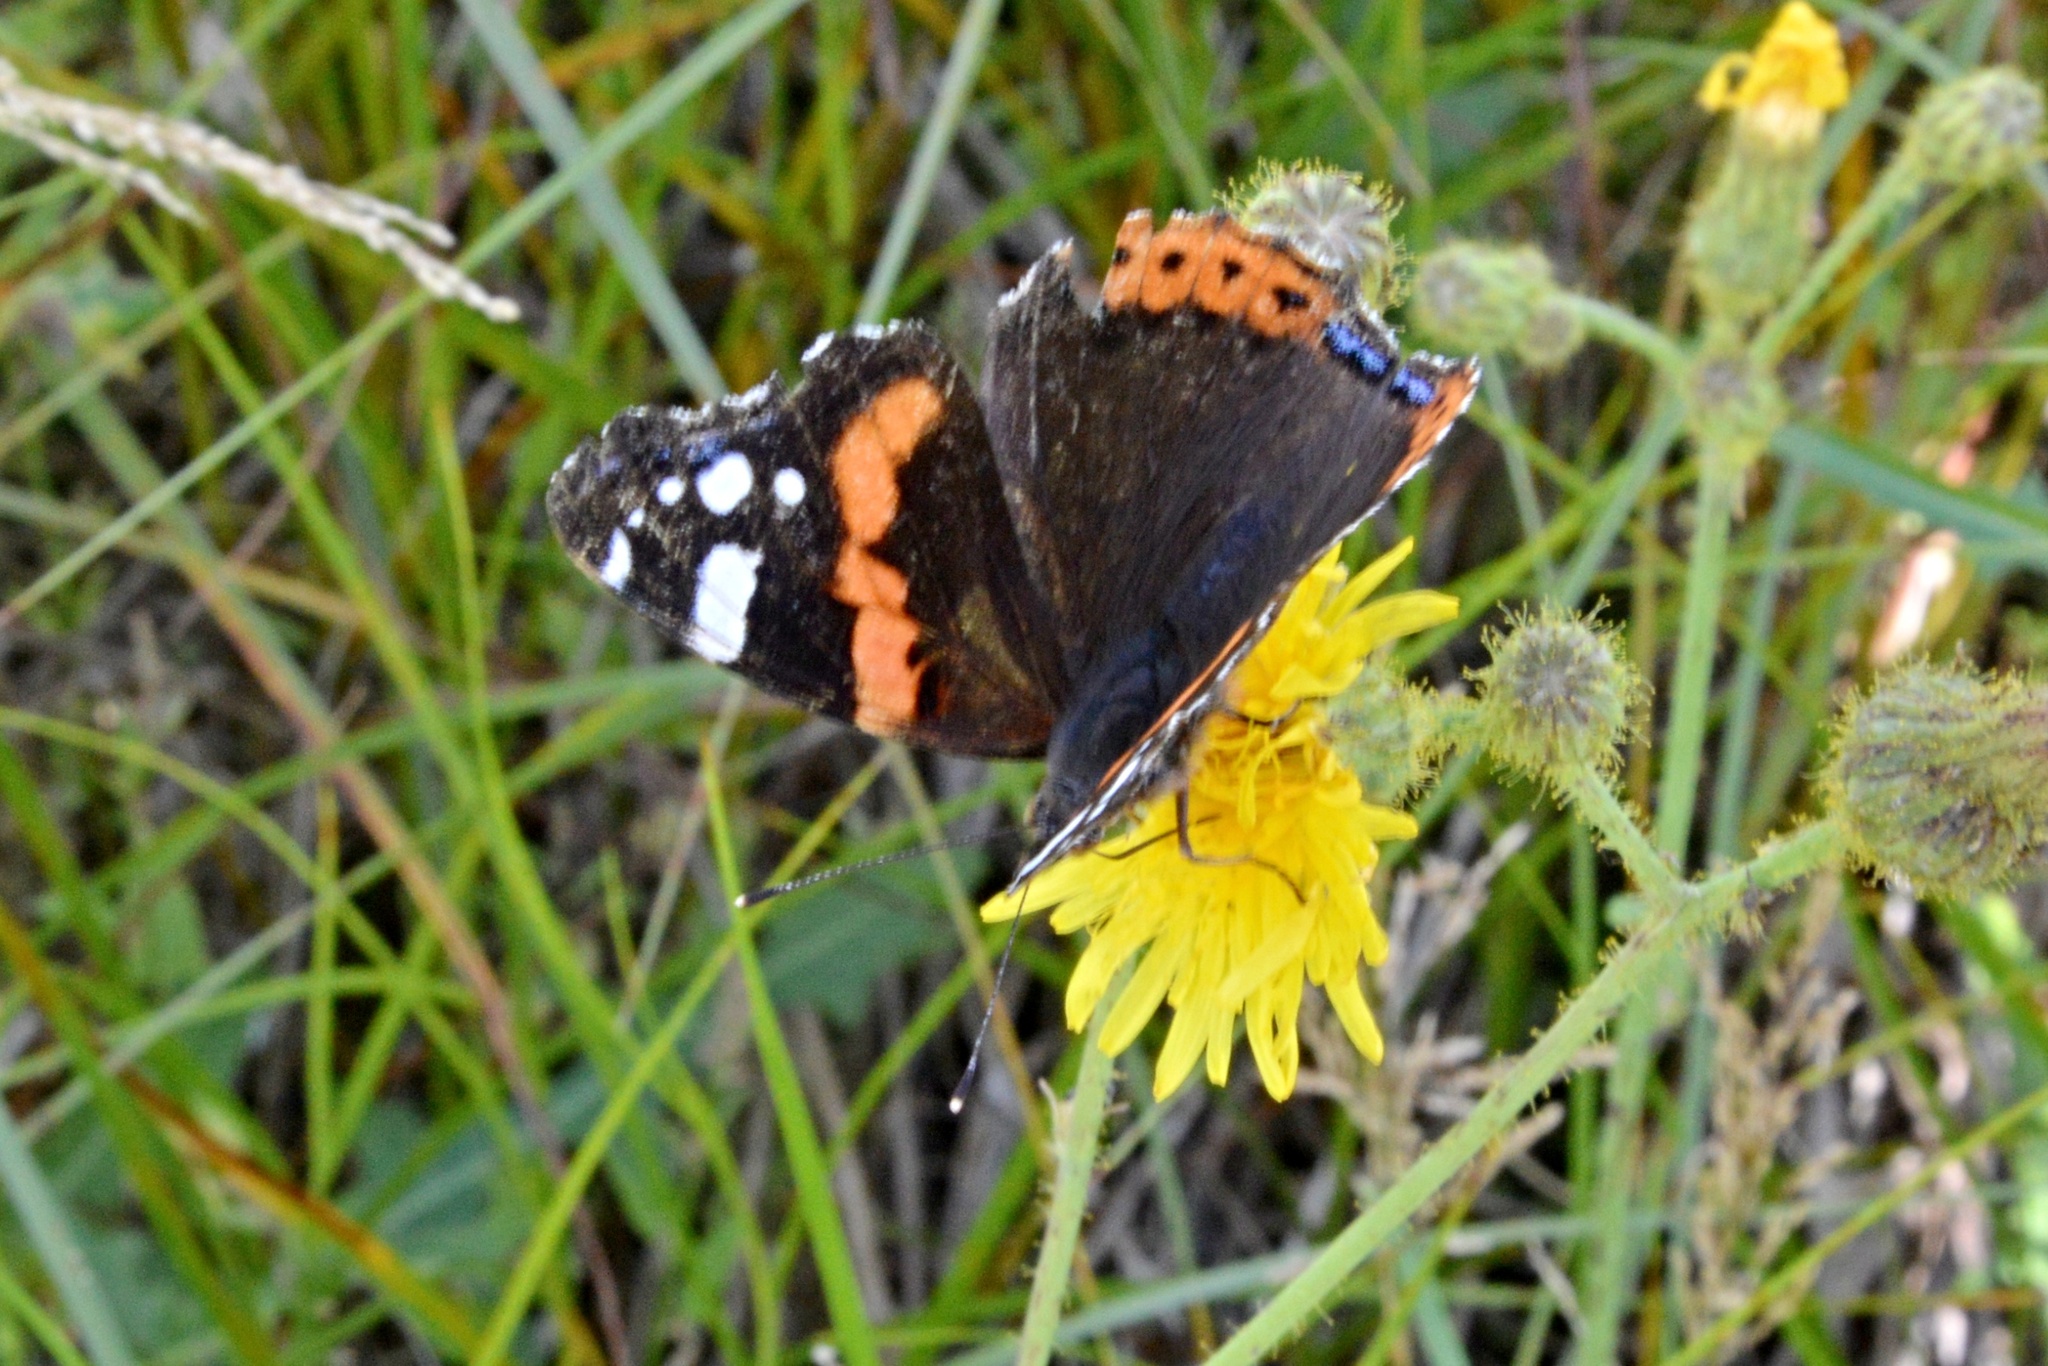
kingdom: Animalia
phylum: Arthropoda
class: Insecta
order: Lepidoptera
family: Nymphalidae
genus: Vanessa
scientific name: Vanessa atalanta
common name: Red admiral
